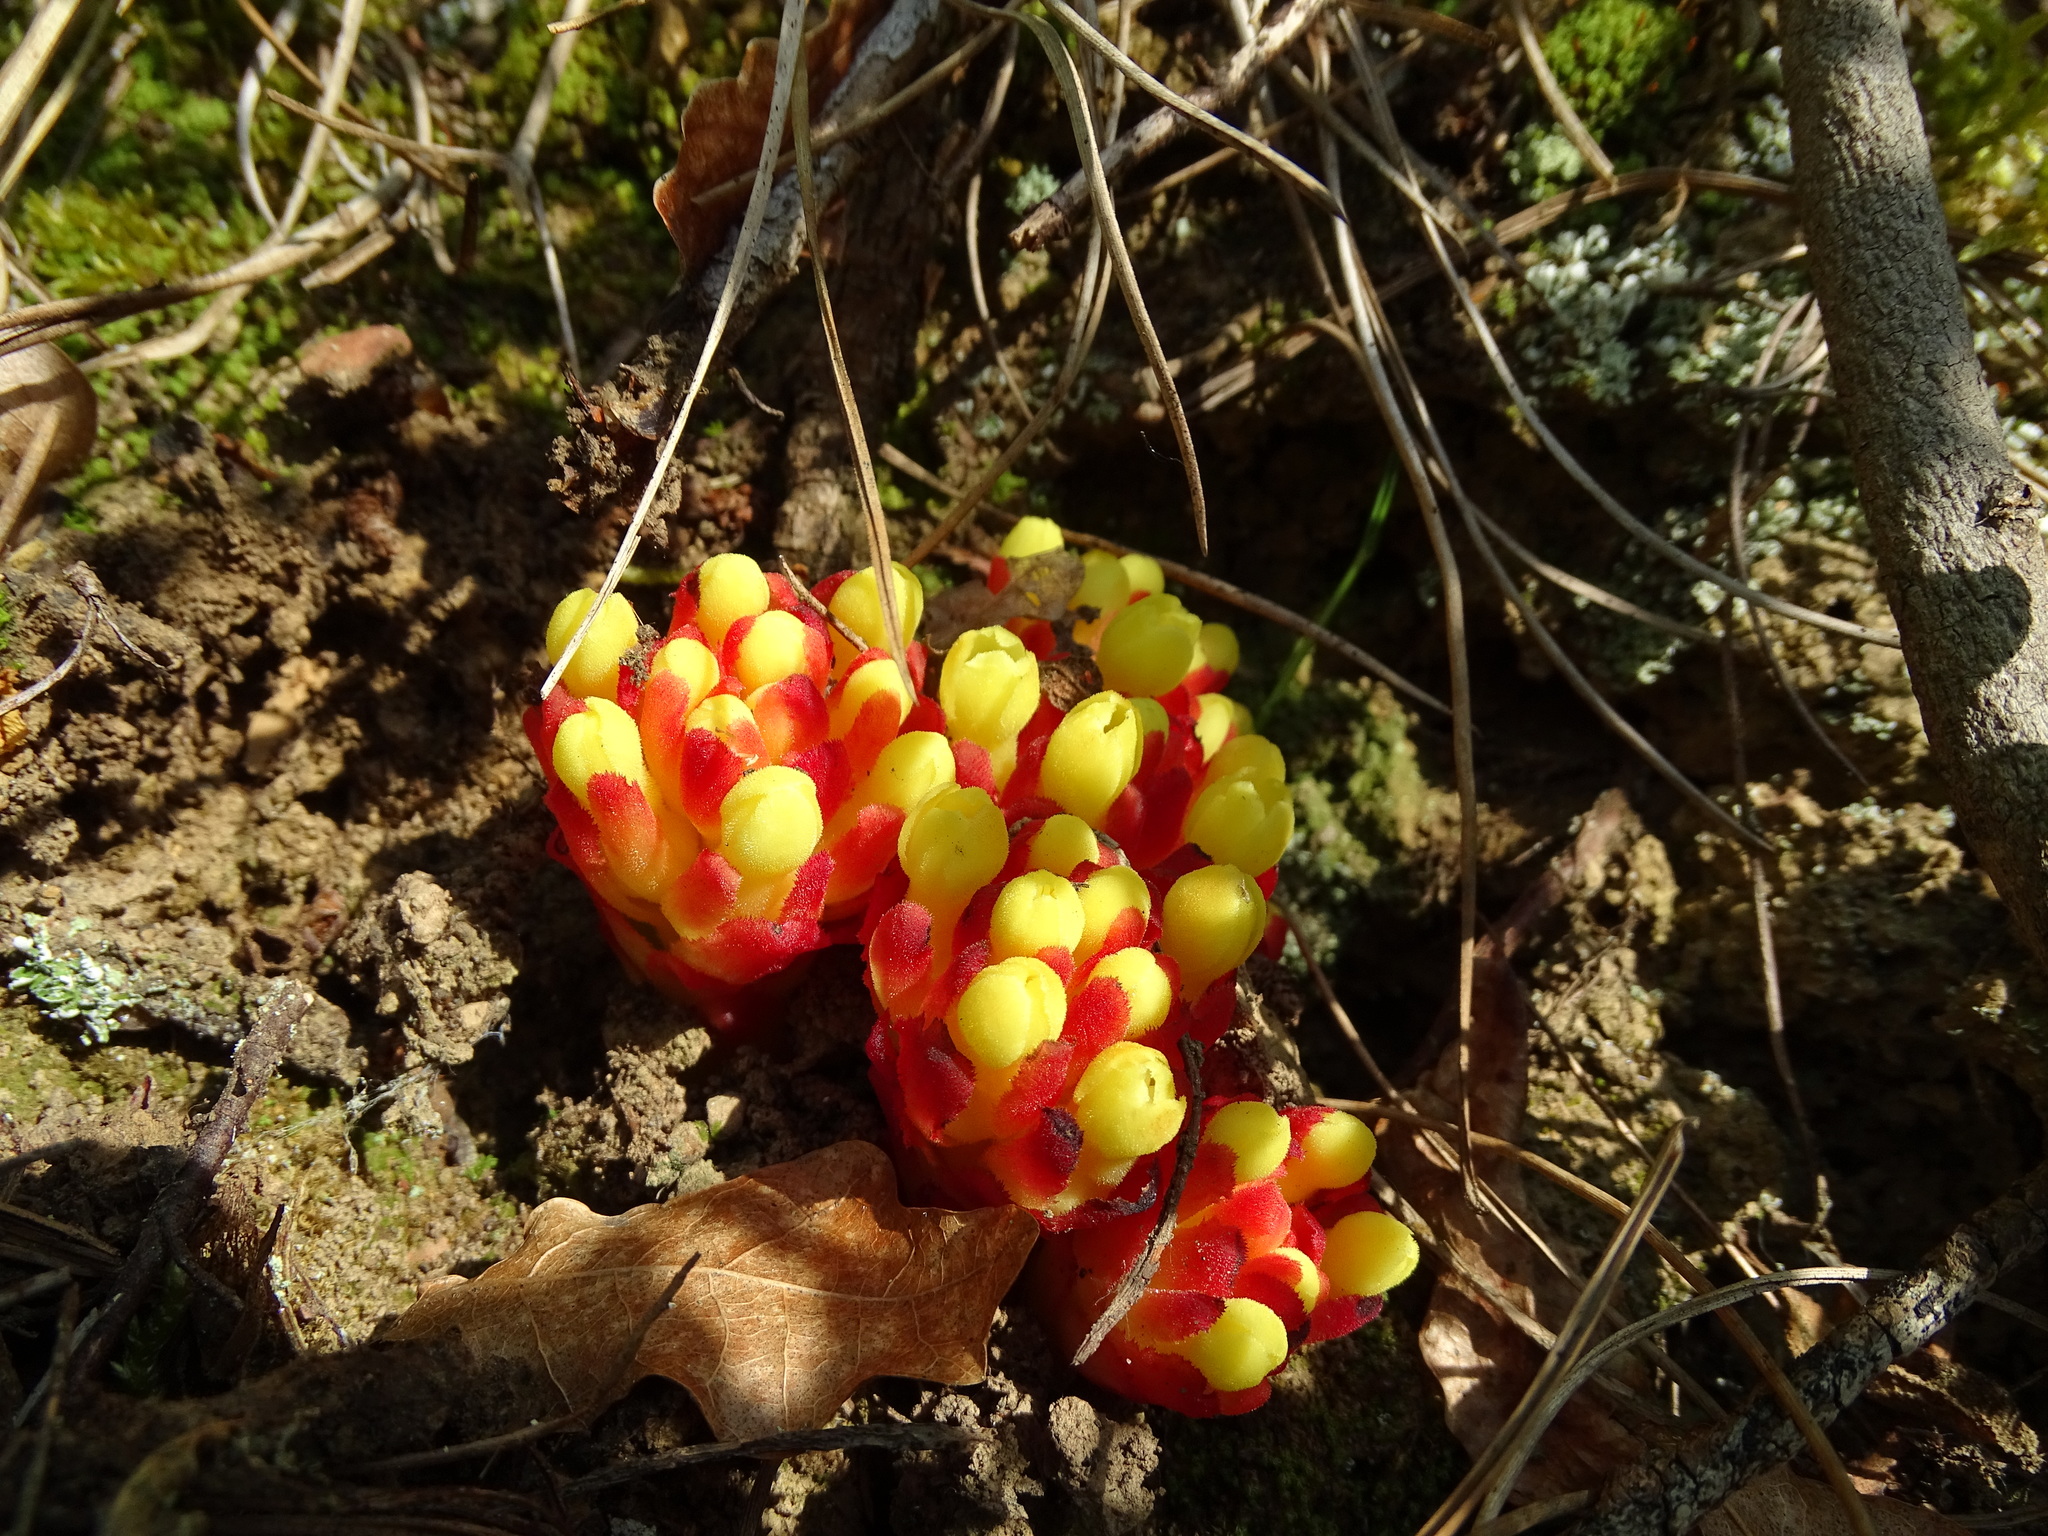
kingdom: Plantae
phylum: Tracheophyta
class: Magnoliopsida
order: Malvales
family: Cytinaceae
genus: Cytinus
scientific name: Cytinus hypocistis
